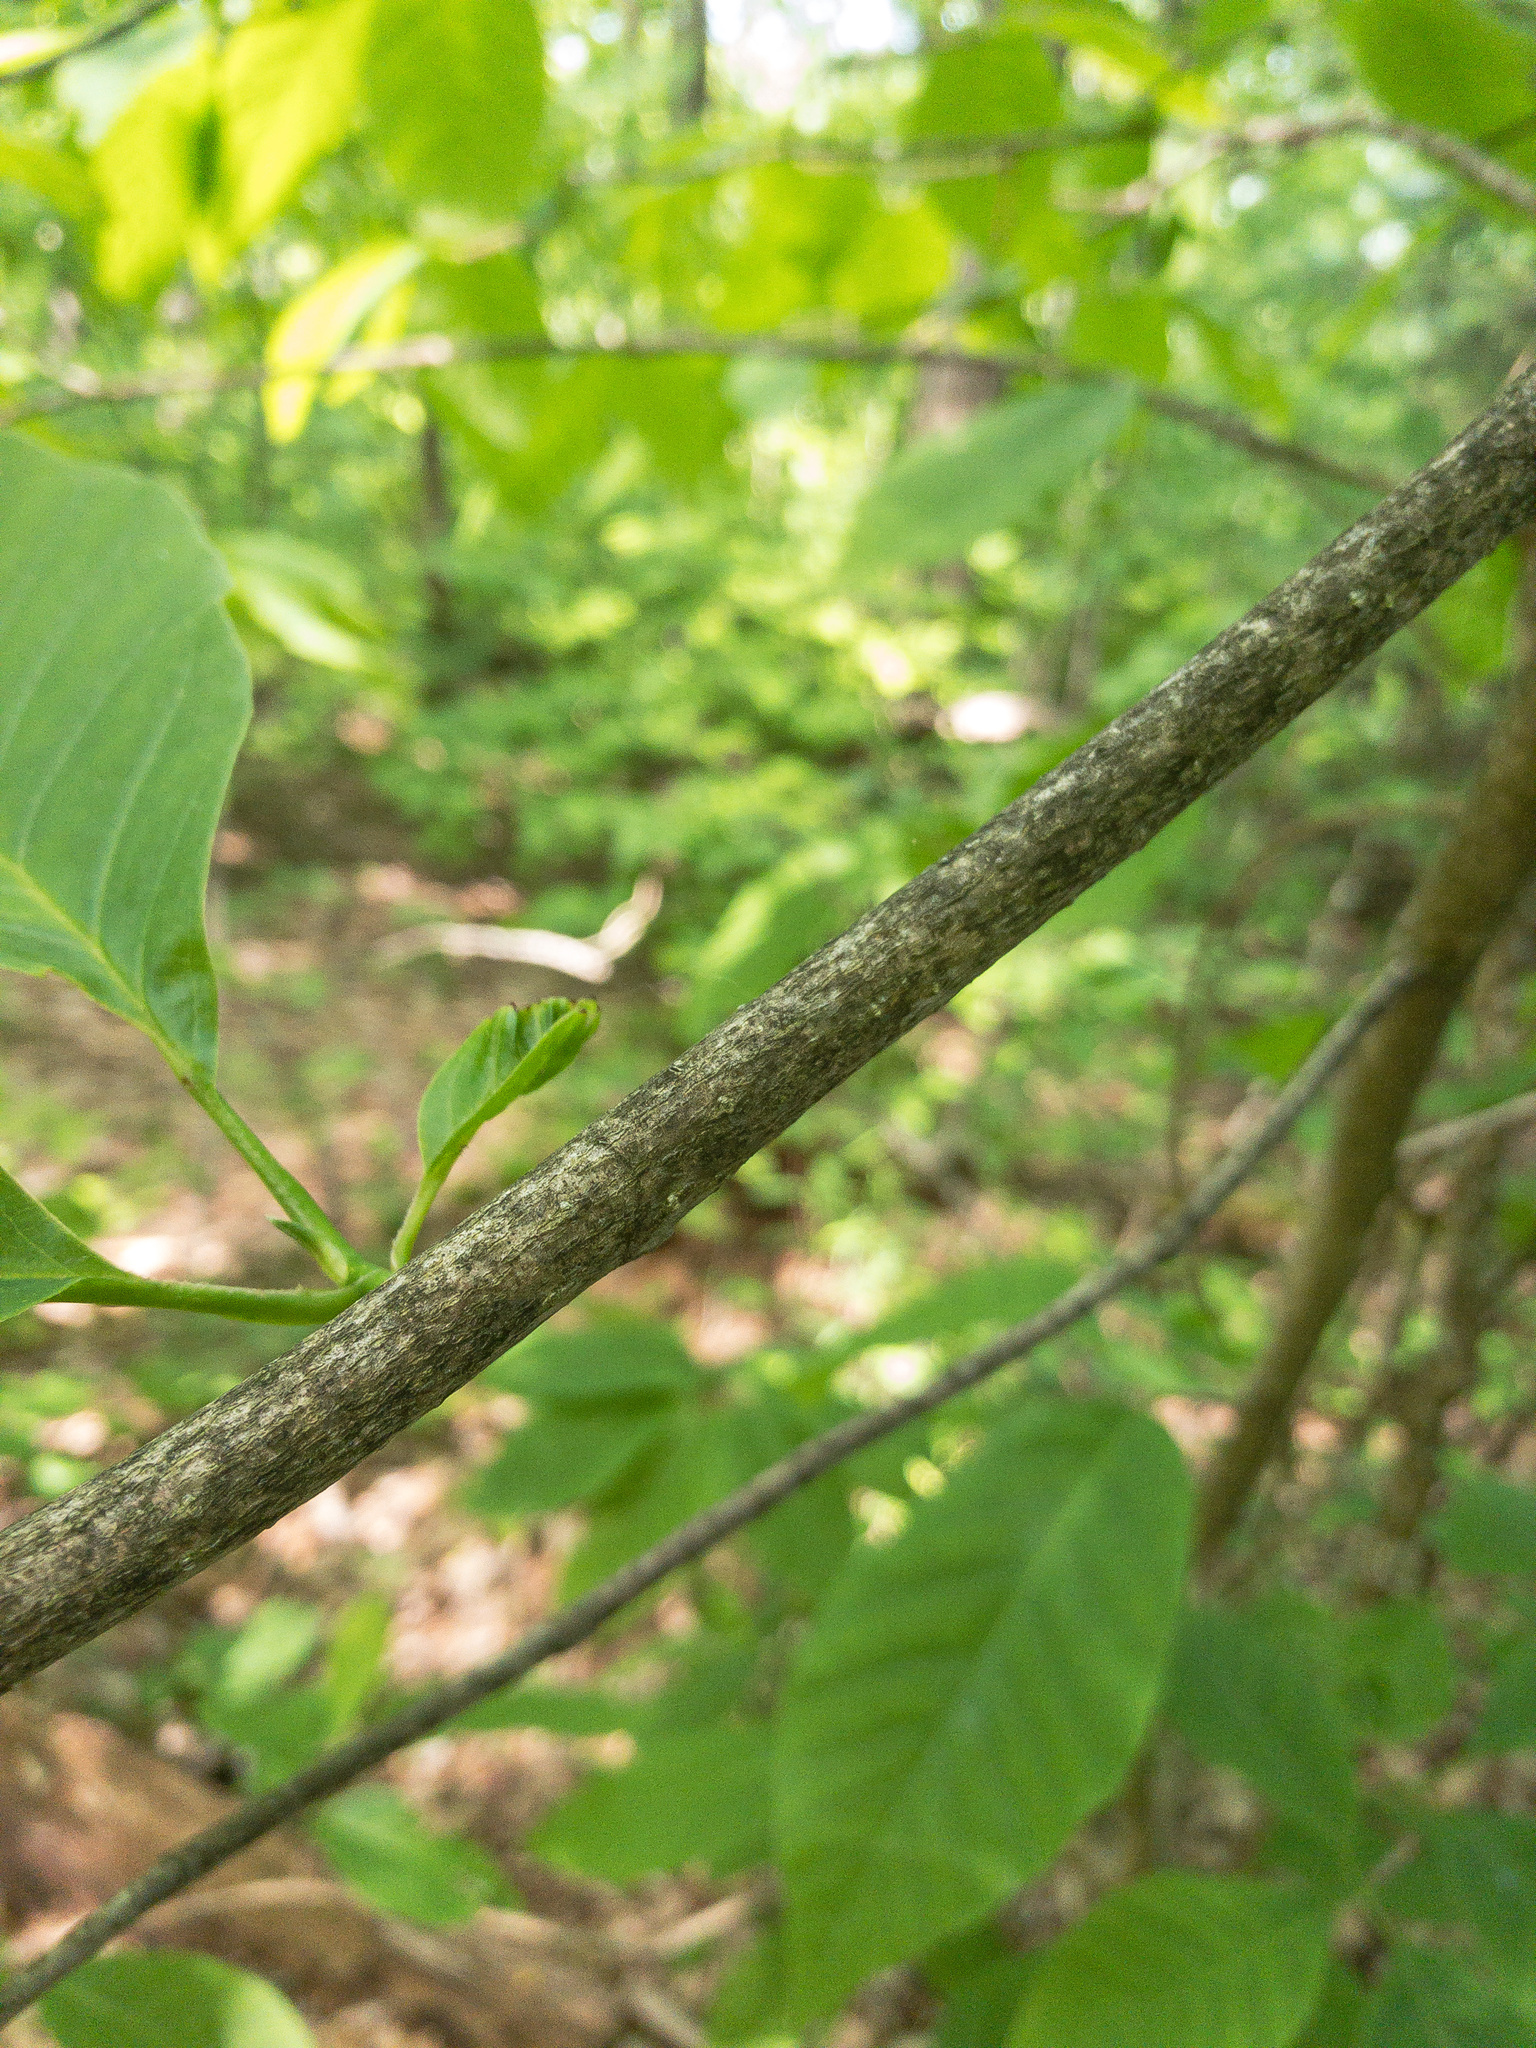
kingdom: Plantae
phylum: Tracheophyta
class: Magnoliopsida
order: Magnoliales
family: Magnoliaceae
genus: Magnolia
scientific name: Magnolia acuminata
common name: Cucumber magnolia
